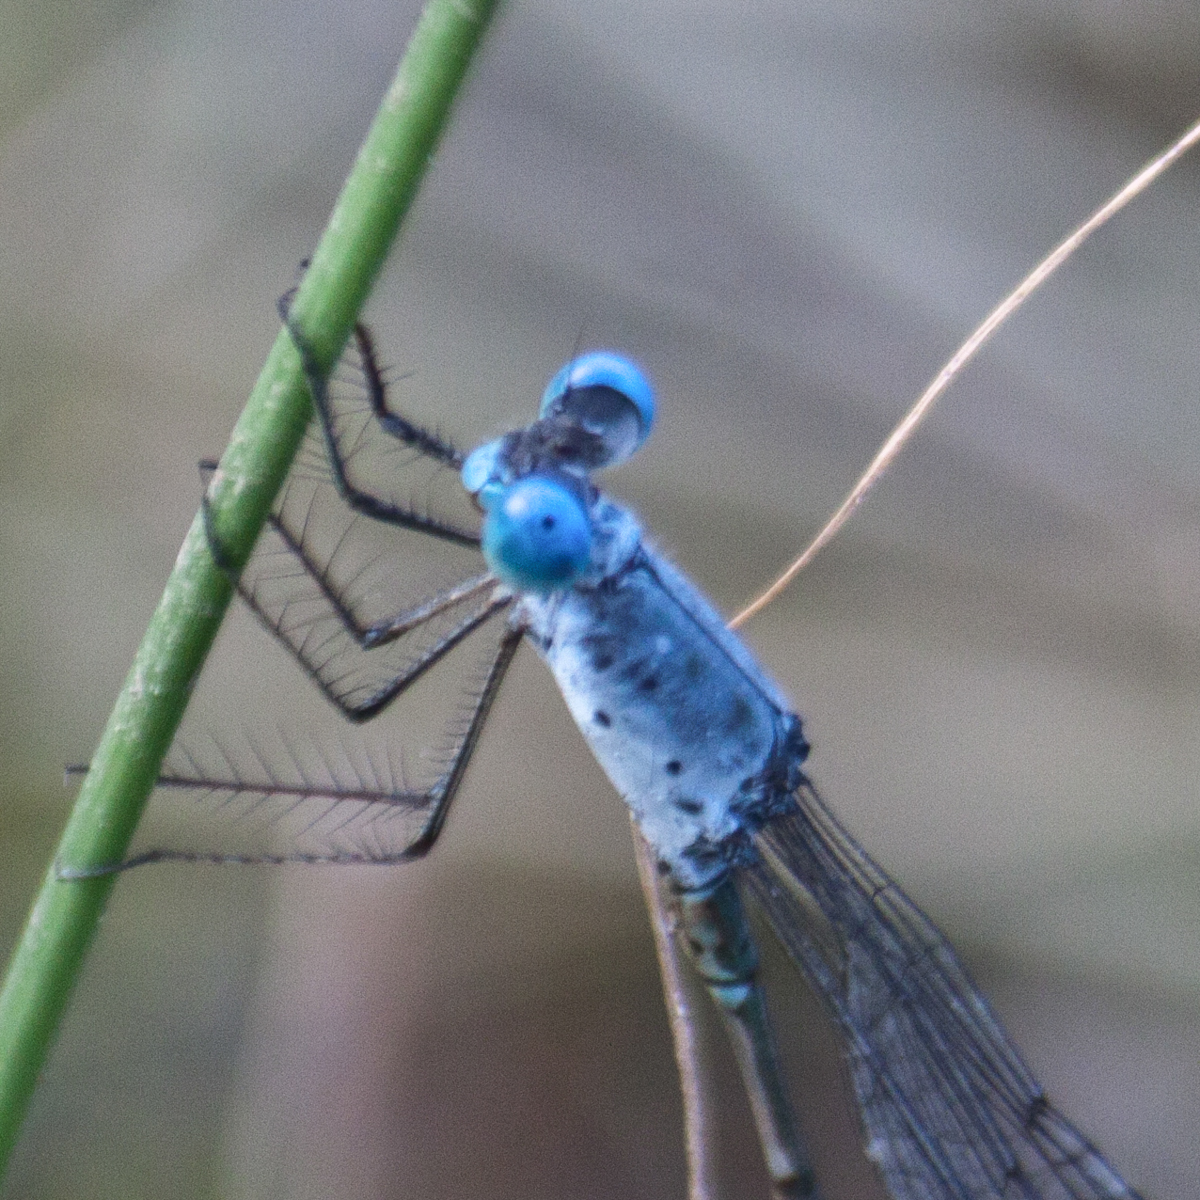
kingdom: Animalia
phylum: Arthropoda
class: Insecta
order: Odonata
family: Lestidae
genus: Lestes
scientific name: Lestes praemorsus
